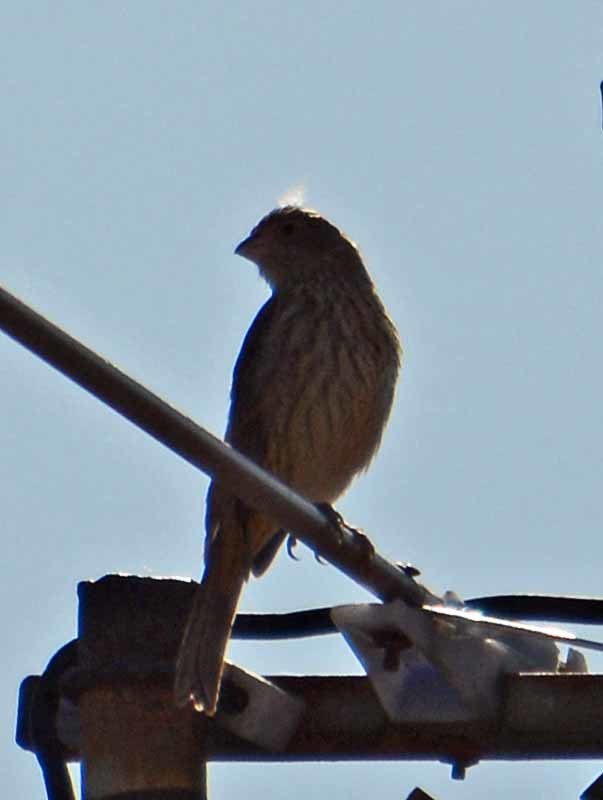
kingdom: Animalia
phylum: Chordata
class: Aves
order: Passeriformes
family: Fringillidae
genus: Haemorhous
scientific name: Haemorhous mexicanus
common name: House finch
